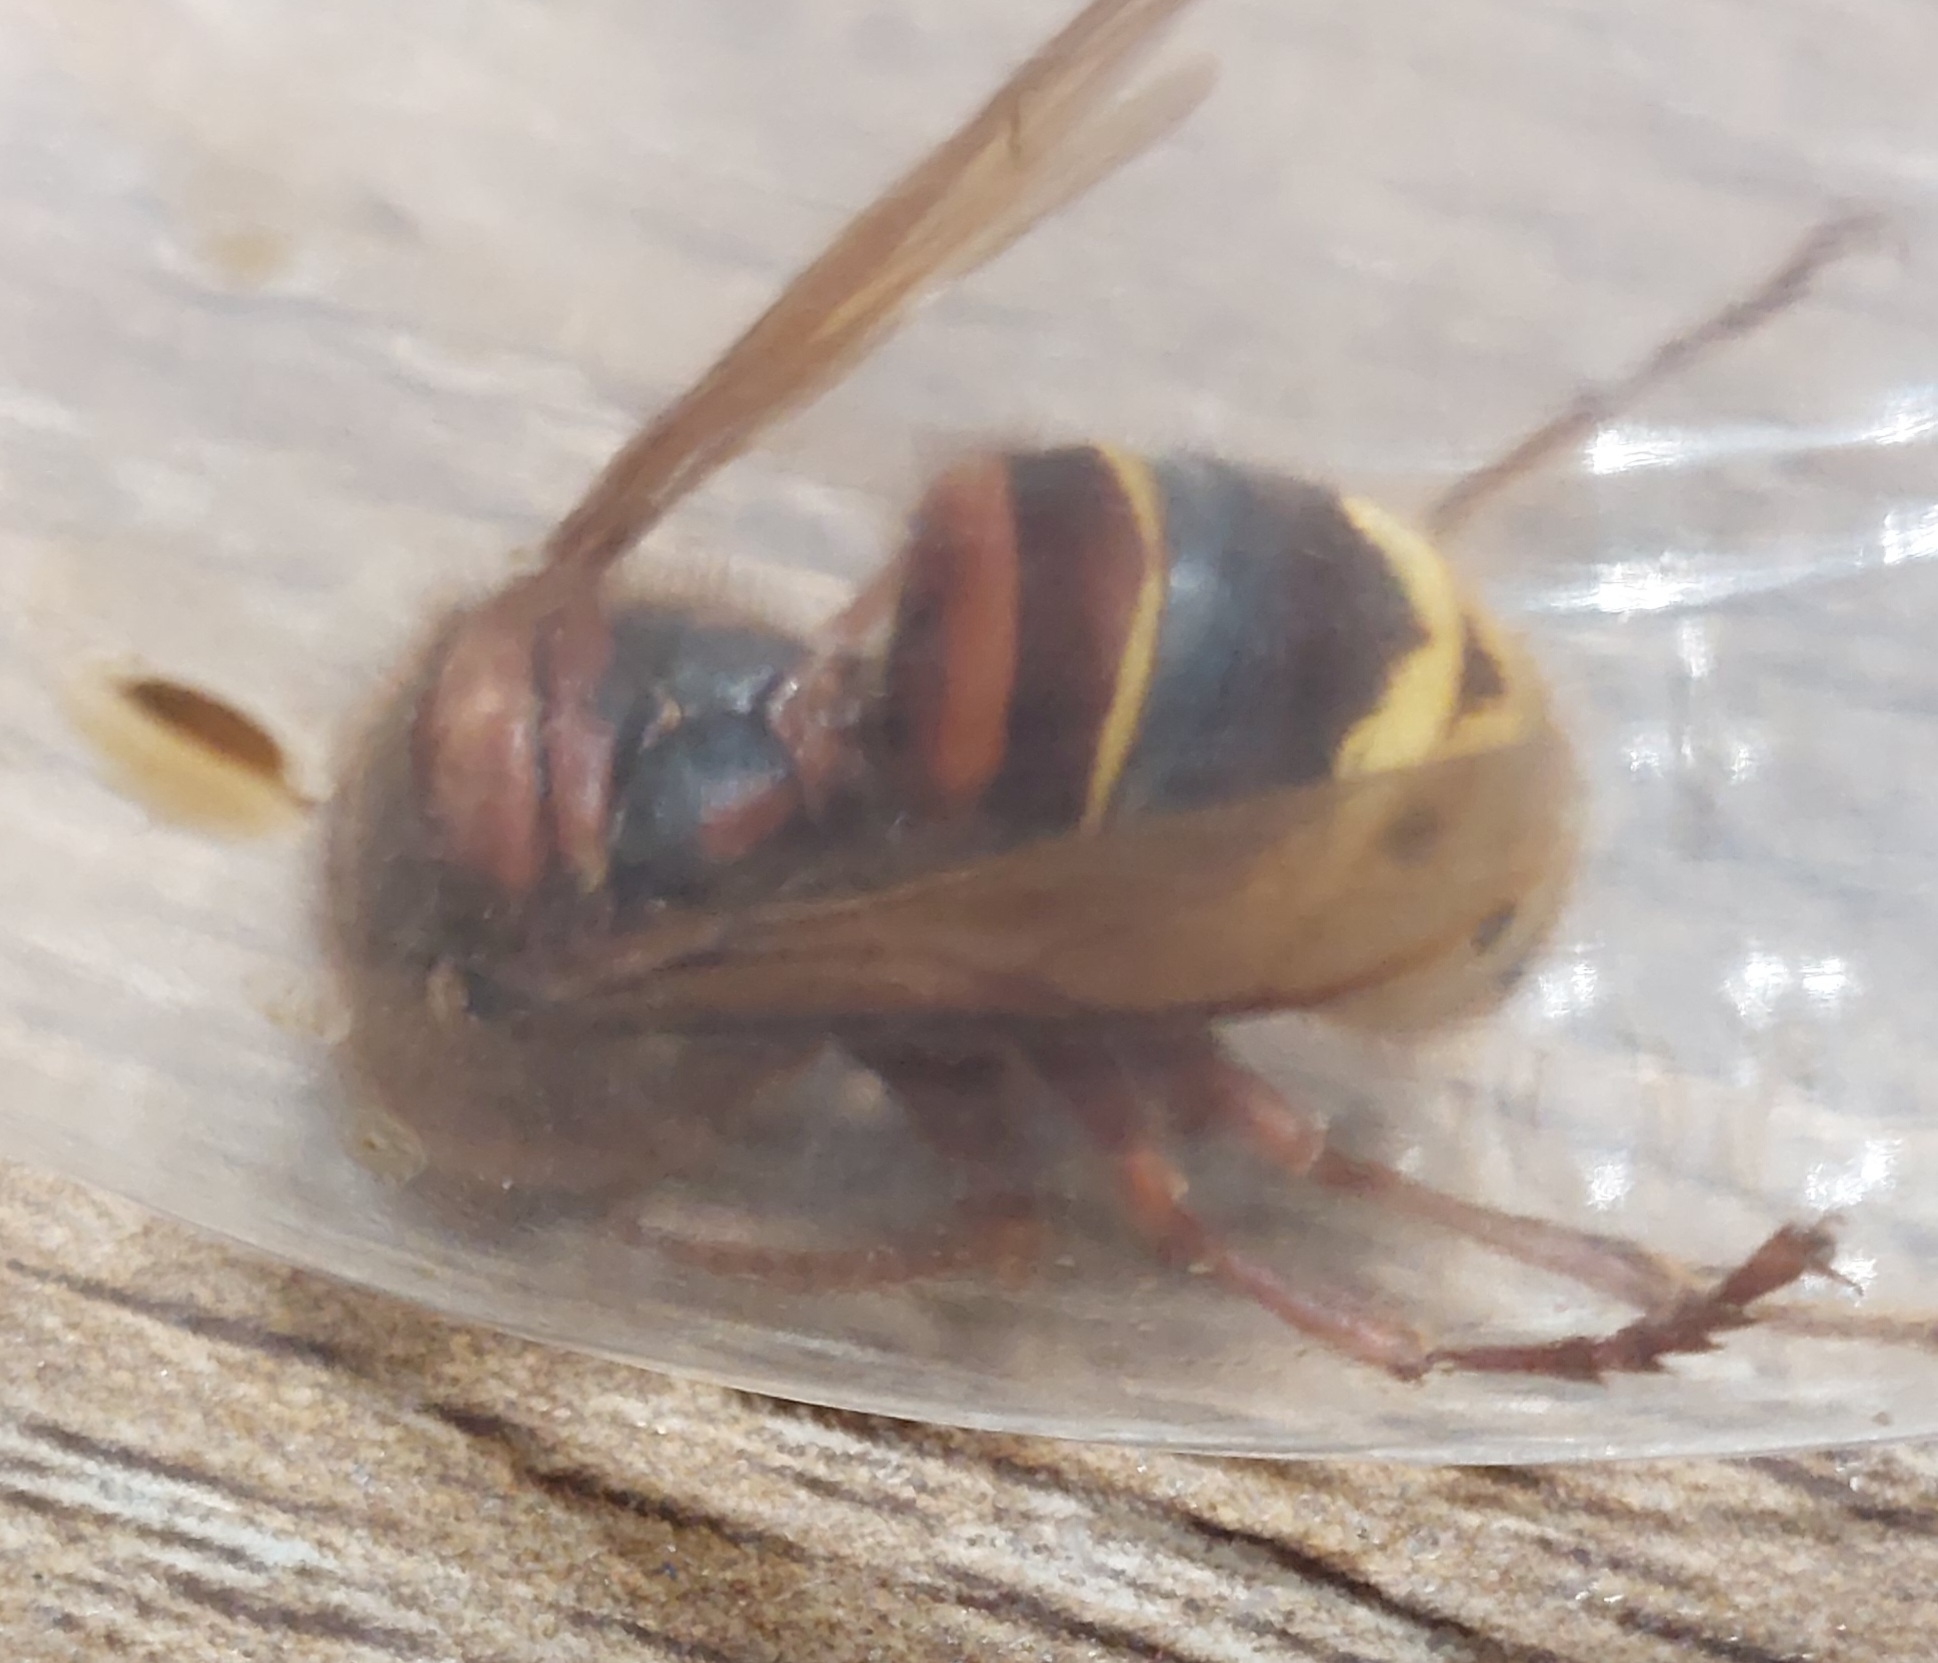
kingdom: Animalia
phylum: Arthropoda
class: Insecta
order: Hymenoptera
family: Vespidae
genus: Vespa
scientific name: Vespa crabro
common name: Hornet
